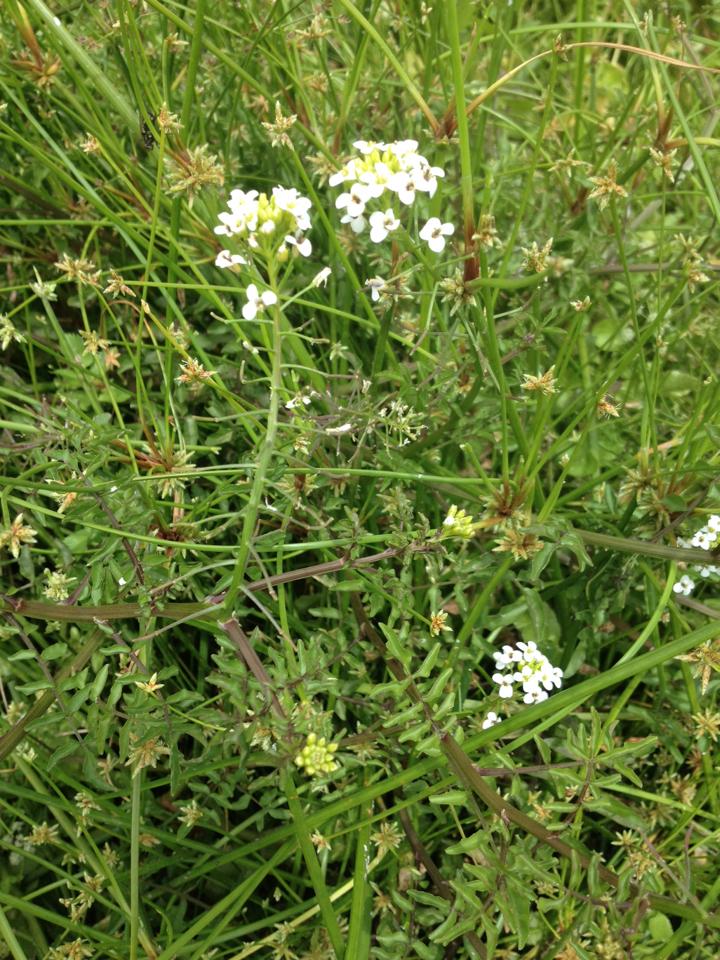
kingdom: Plantae
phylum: Tracheophyta
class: Magnoliopsida
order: Brassicales
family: Brassicaceae
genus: Nasturtium
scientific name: Nasturtium officinale
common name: Watercress
